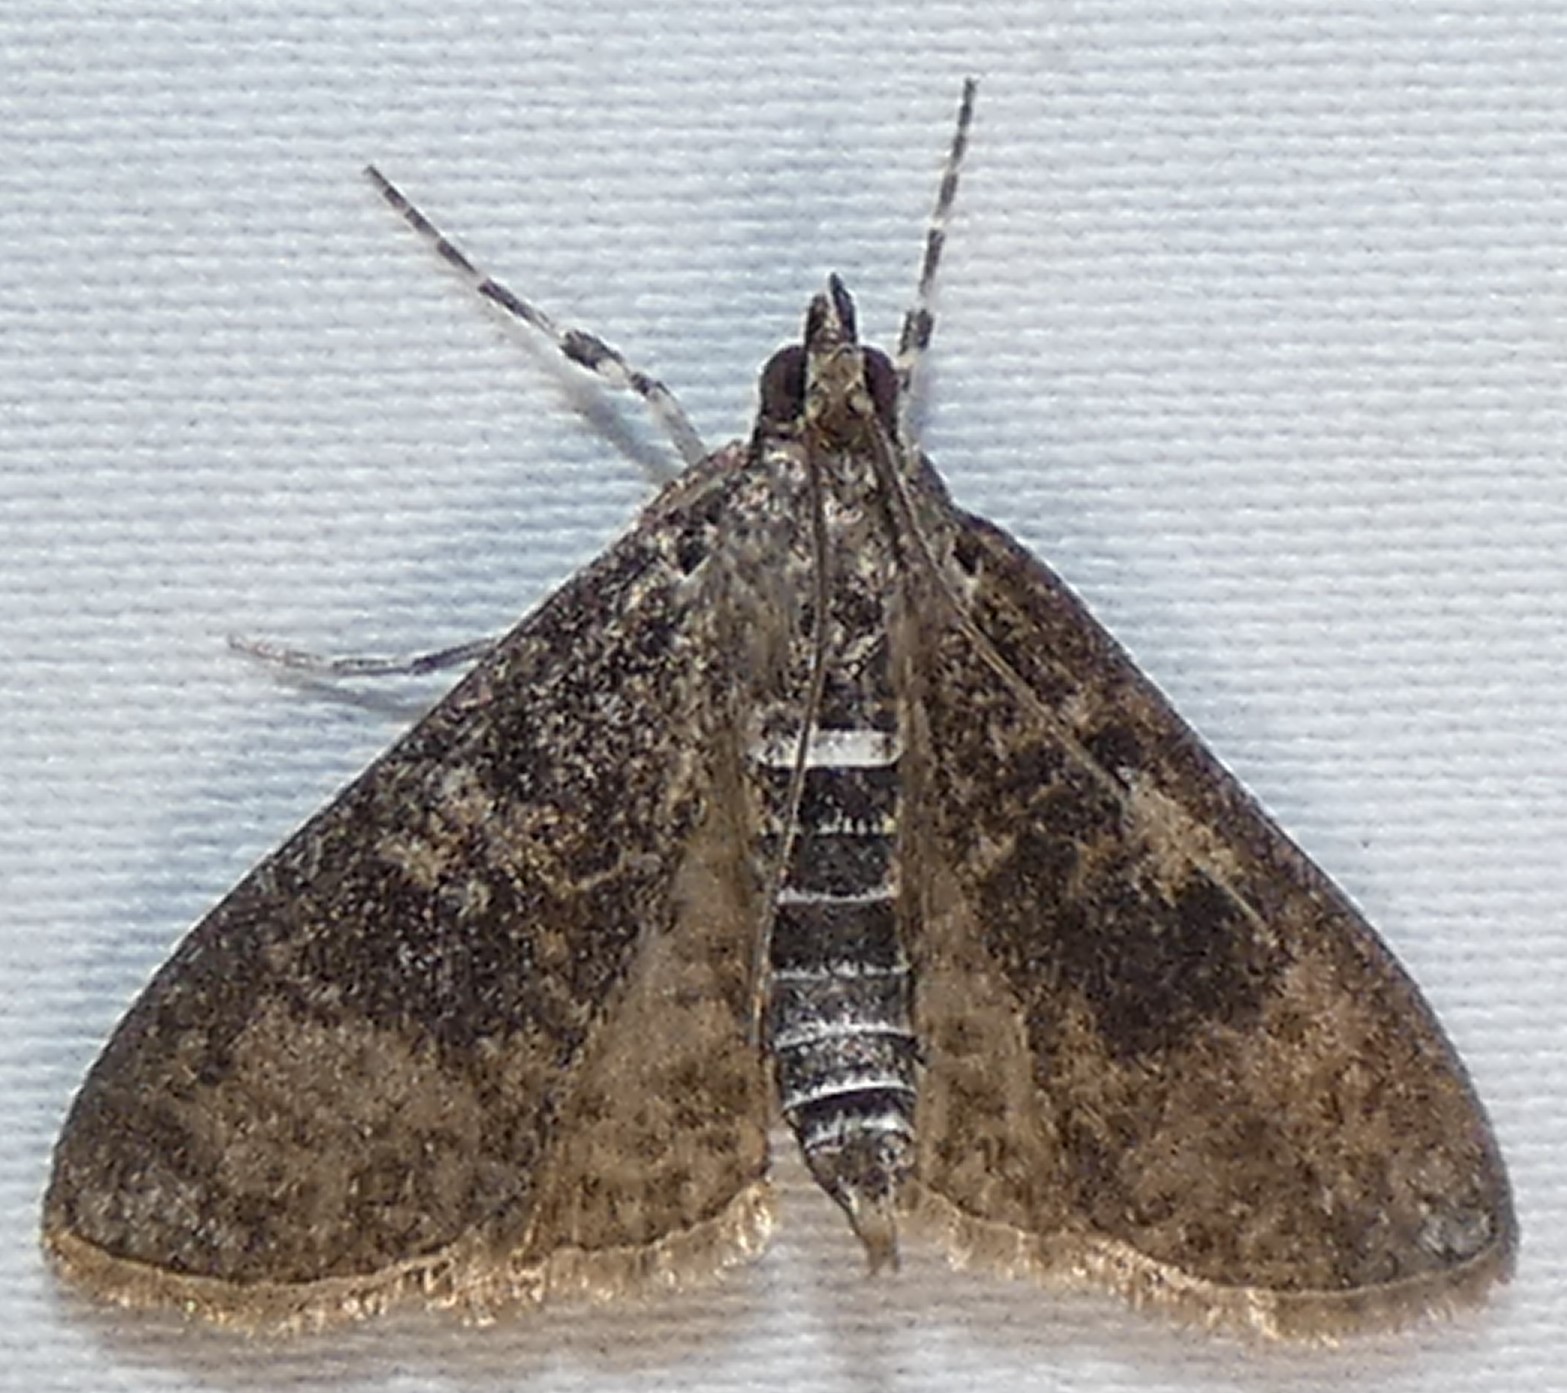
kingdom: Animalia
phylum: Arthropoda
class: Insecta
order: Lepidoptera
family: Crambidae
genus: Palpita
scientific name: Palpita magniferalis
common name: Splendid palpita moth
